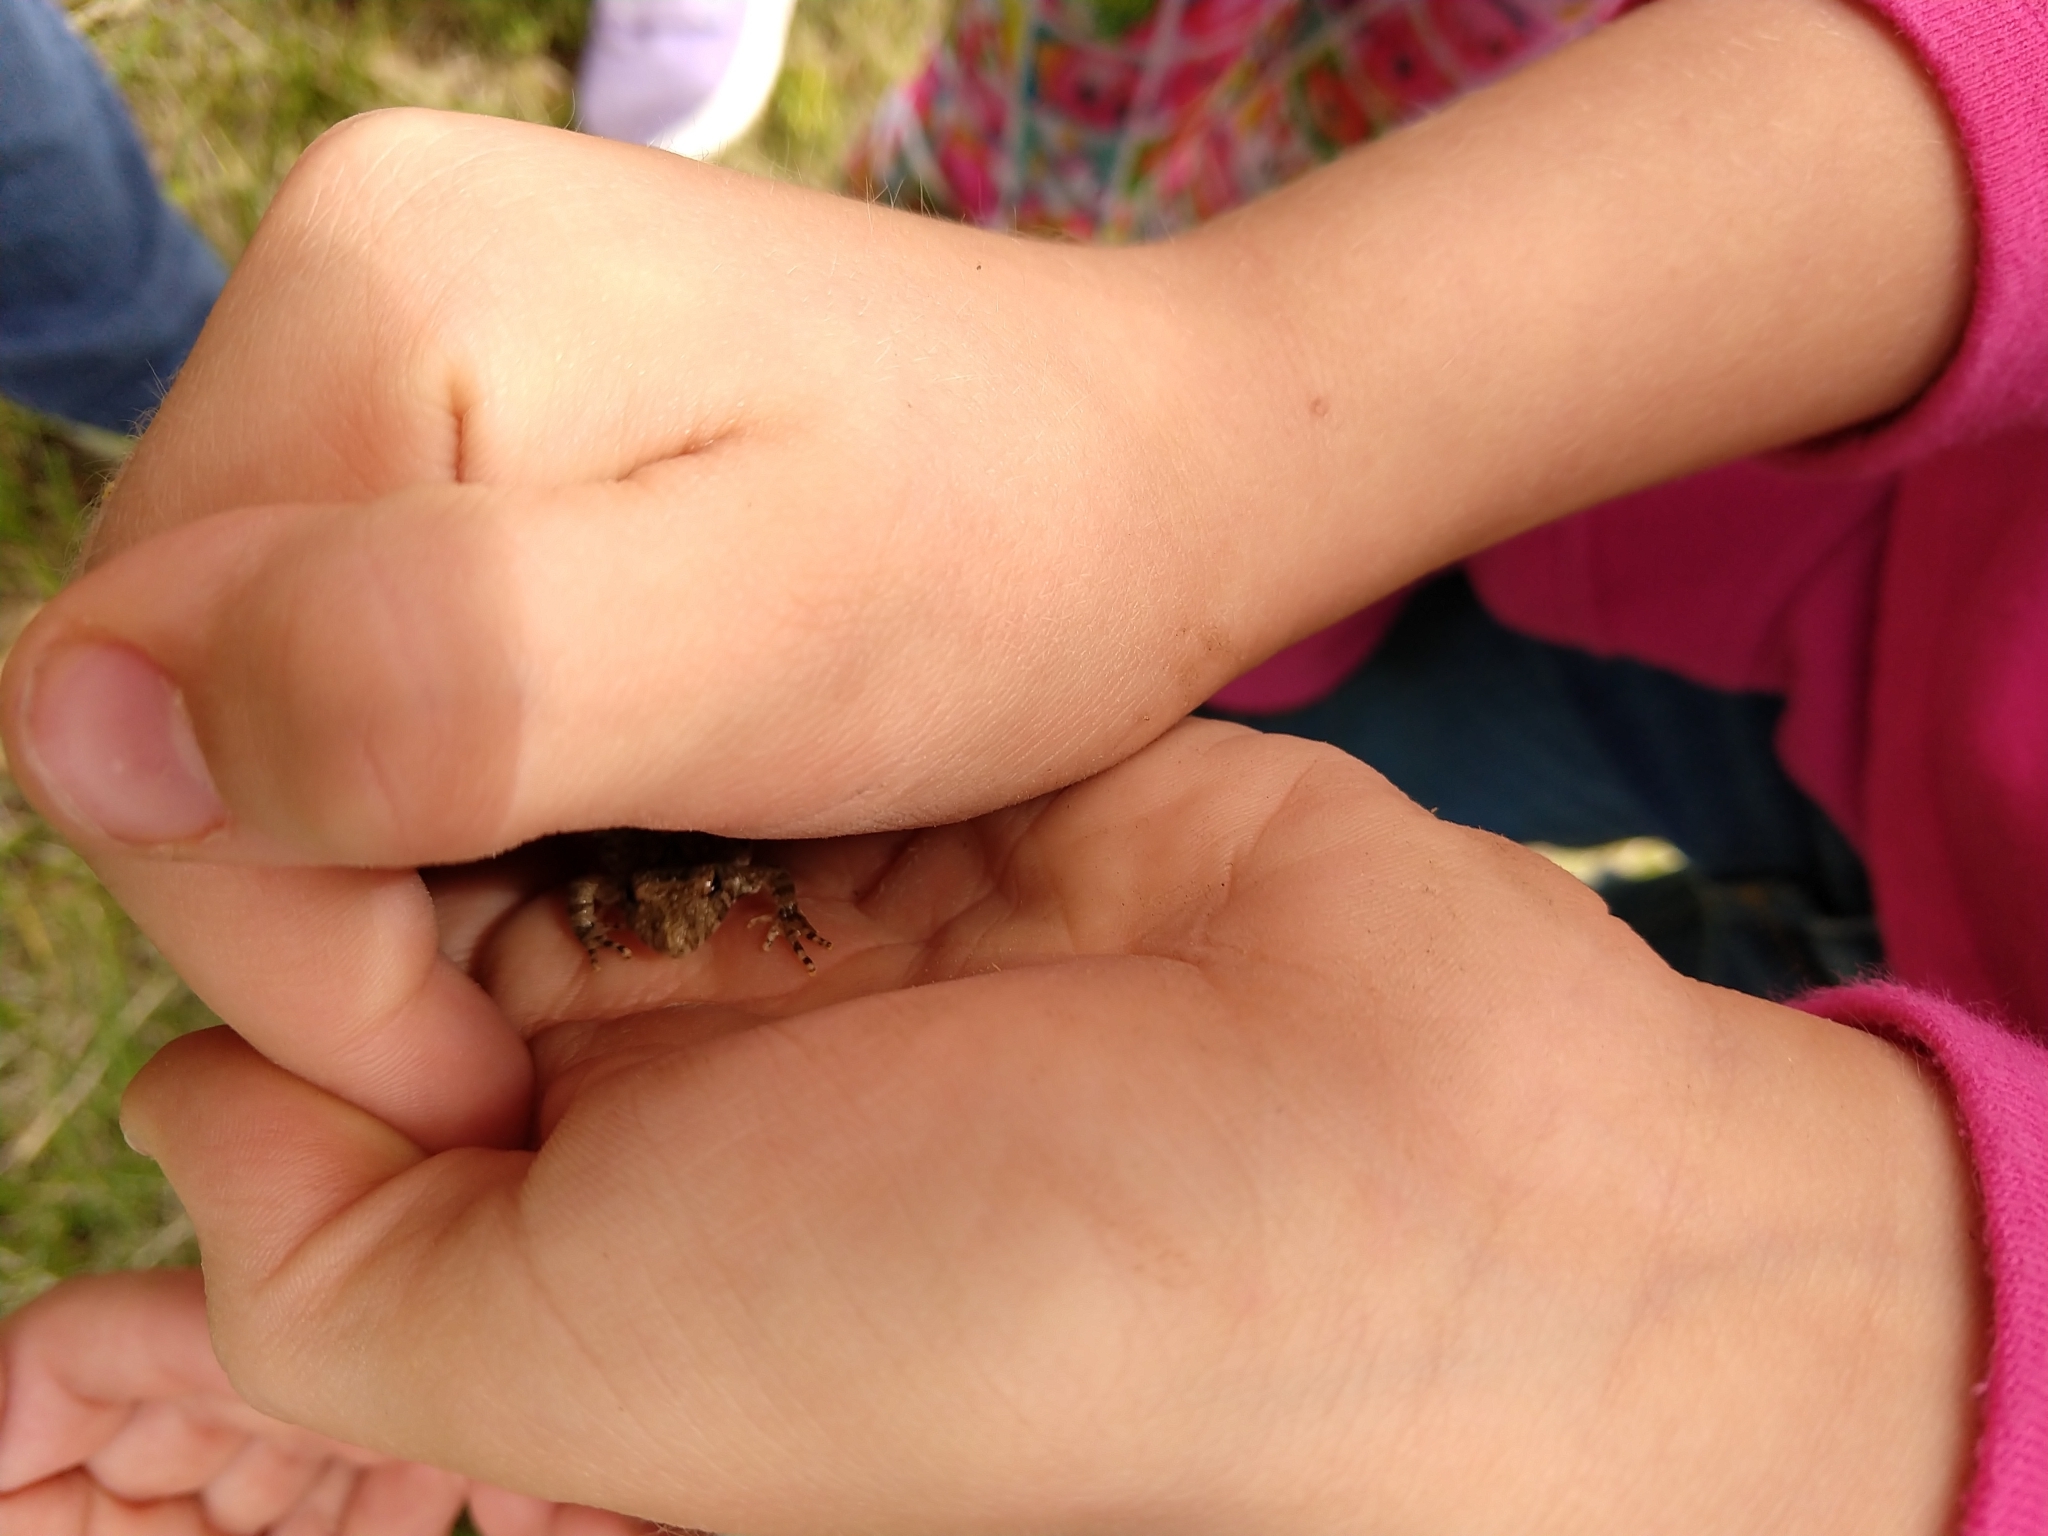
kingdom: Animalia
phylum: Chordata
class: Amphibia
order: Anura
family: Hylidae
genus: Acris
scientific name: Acris blanchardi
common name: Blanchard's cricket frog
